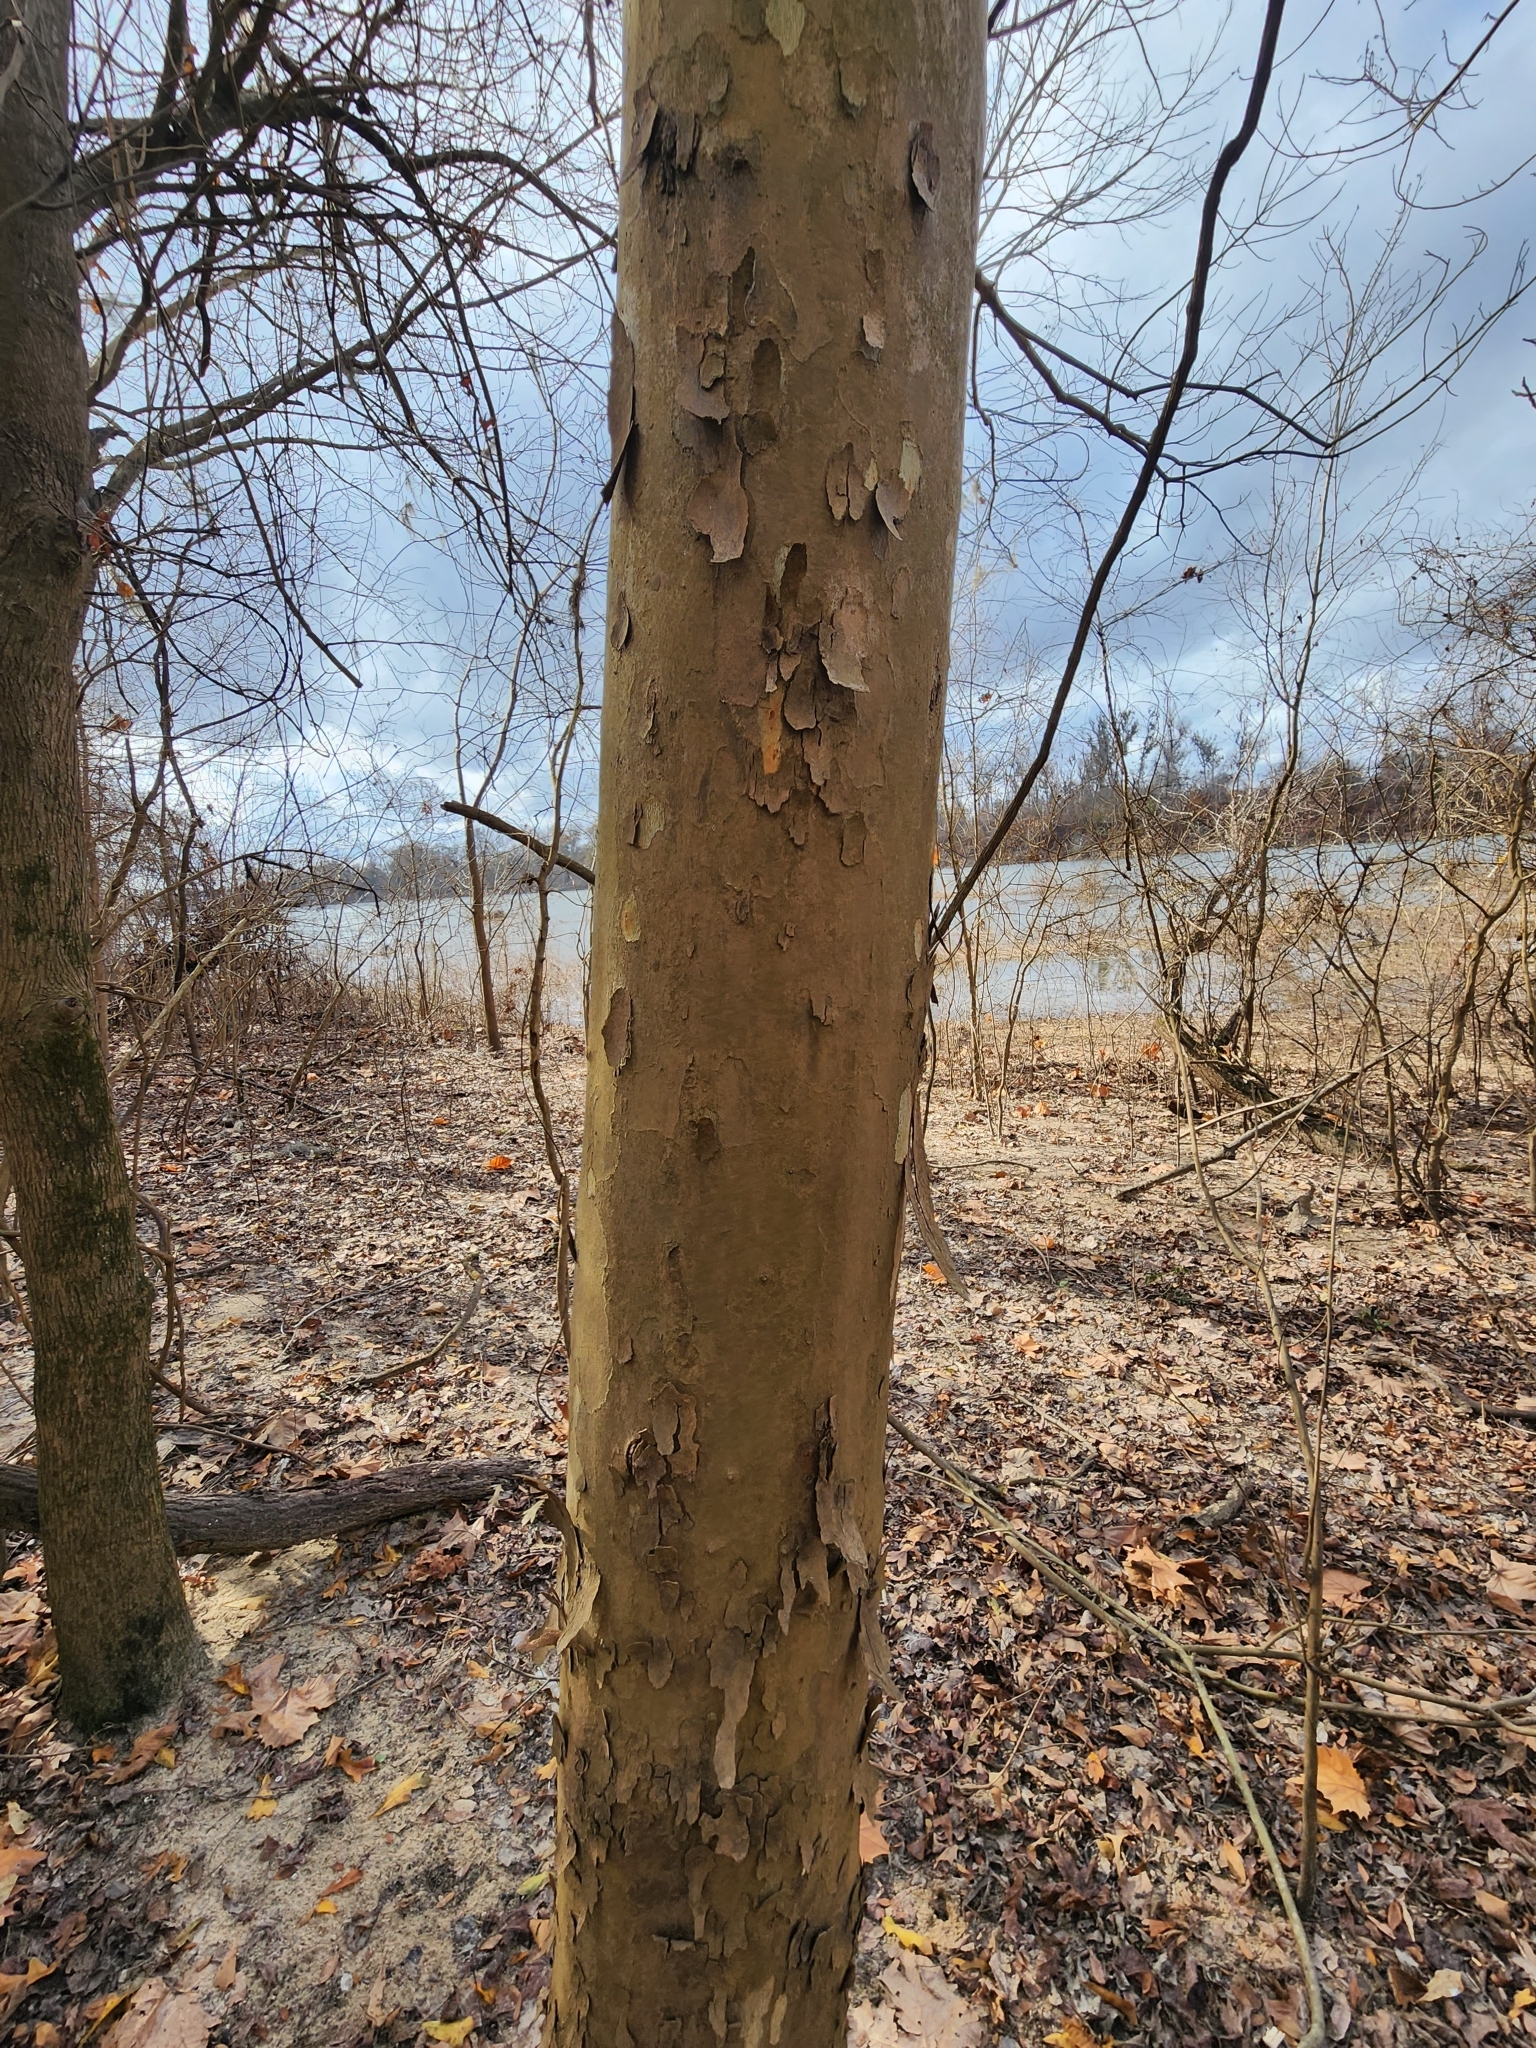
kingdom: Plantae
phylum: Tracheophyta
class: Magnoliopsida
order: Proteales
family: Platanaceae
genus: Platanus
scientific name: Platanus occidentalis
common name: American sycamore
